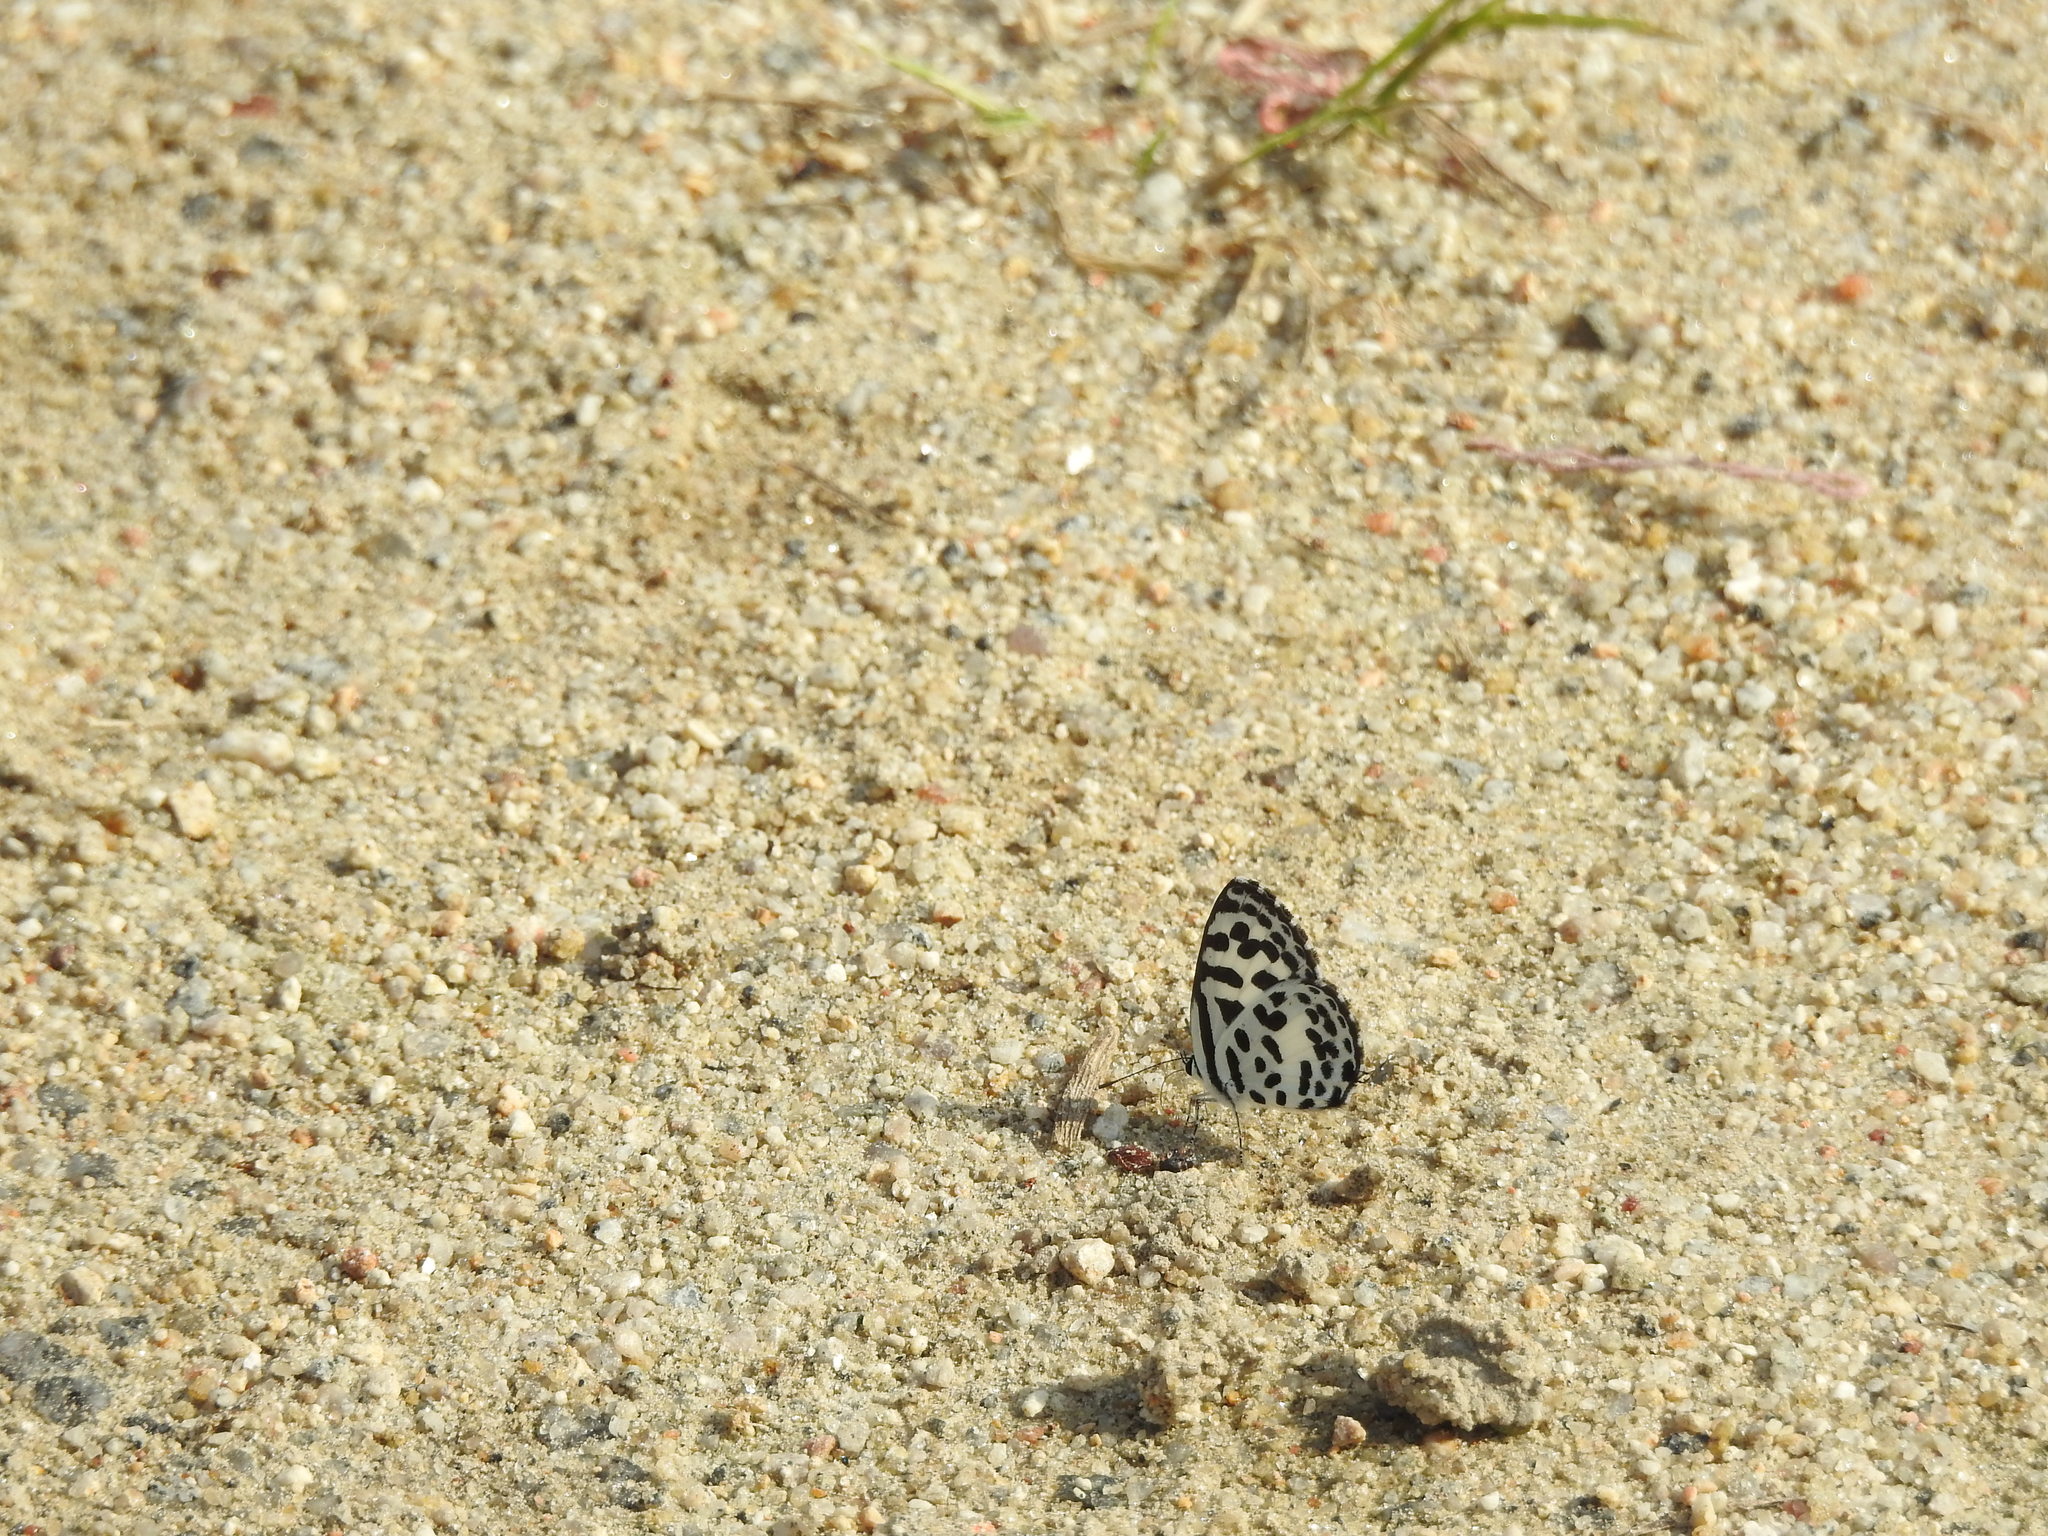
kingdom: Animalia
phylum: Arthropoda
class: Insecta
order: Lepidoptera
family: Lycaenidae
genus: Castalius
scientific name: Castalius rosimon
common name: Common pierrot
